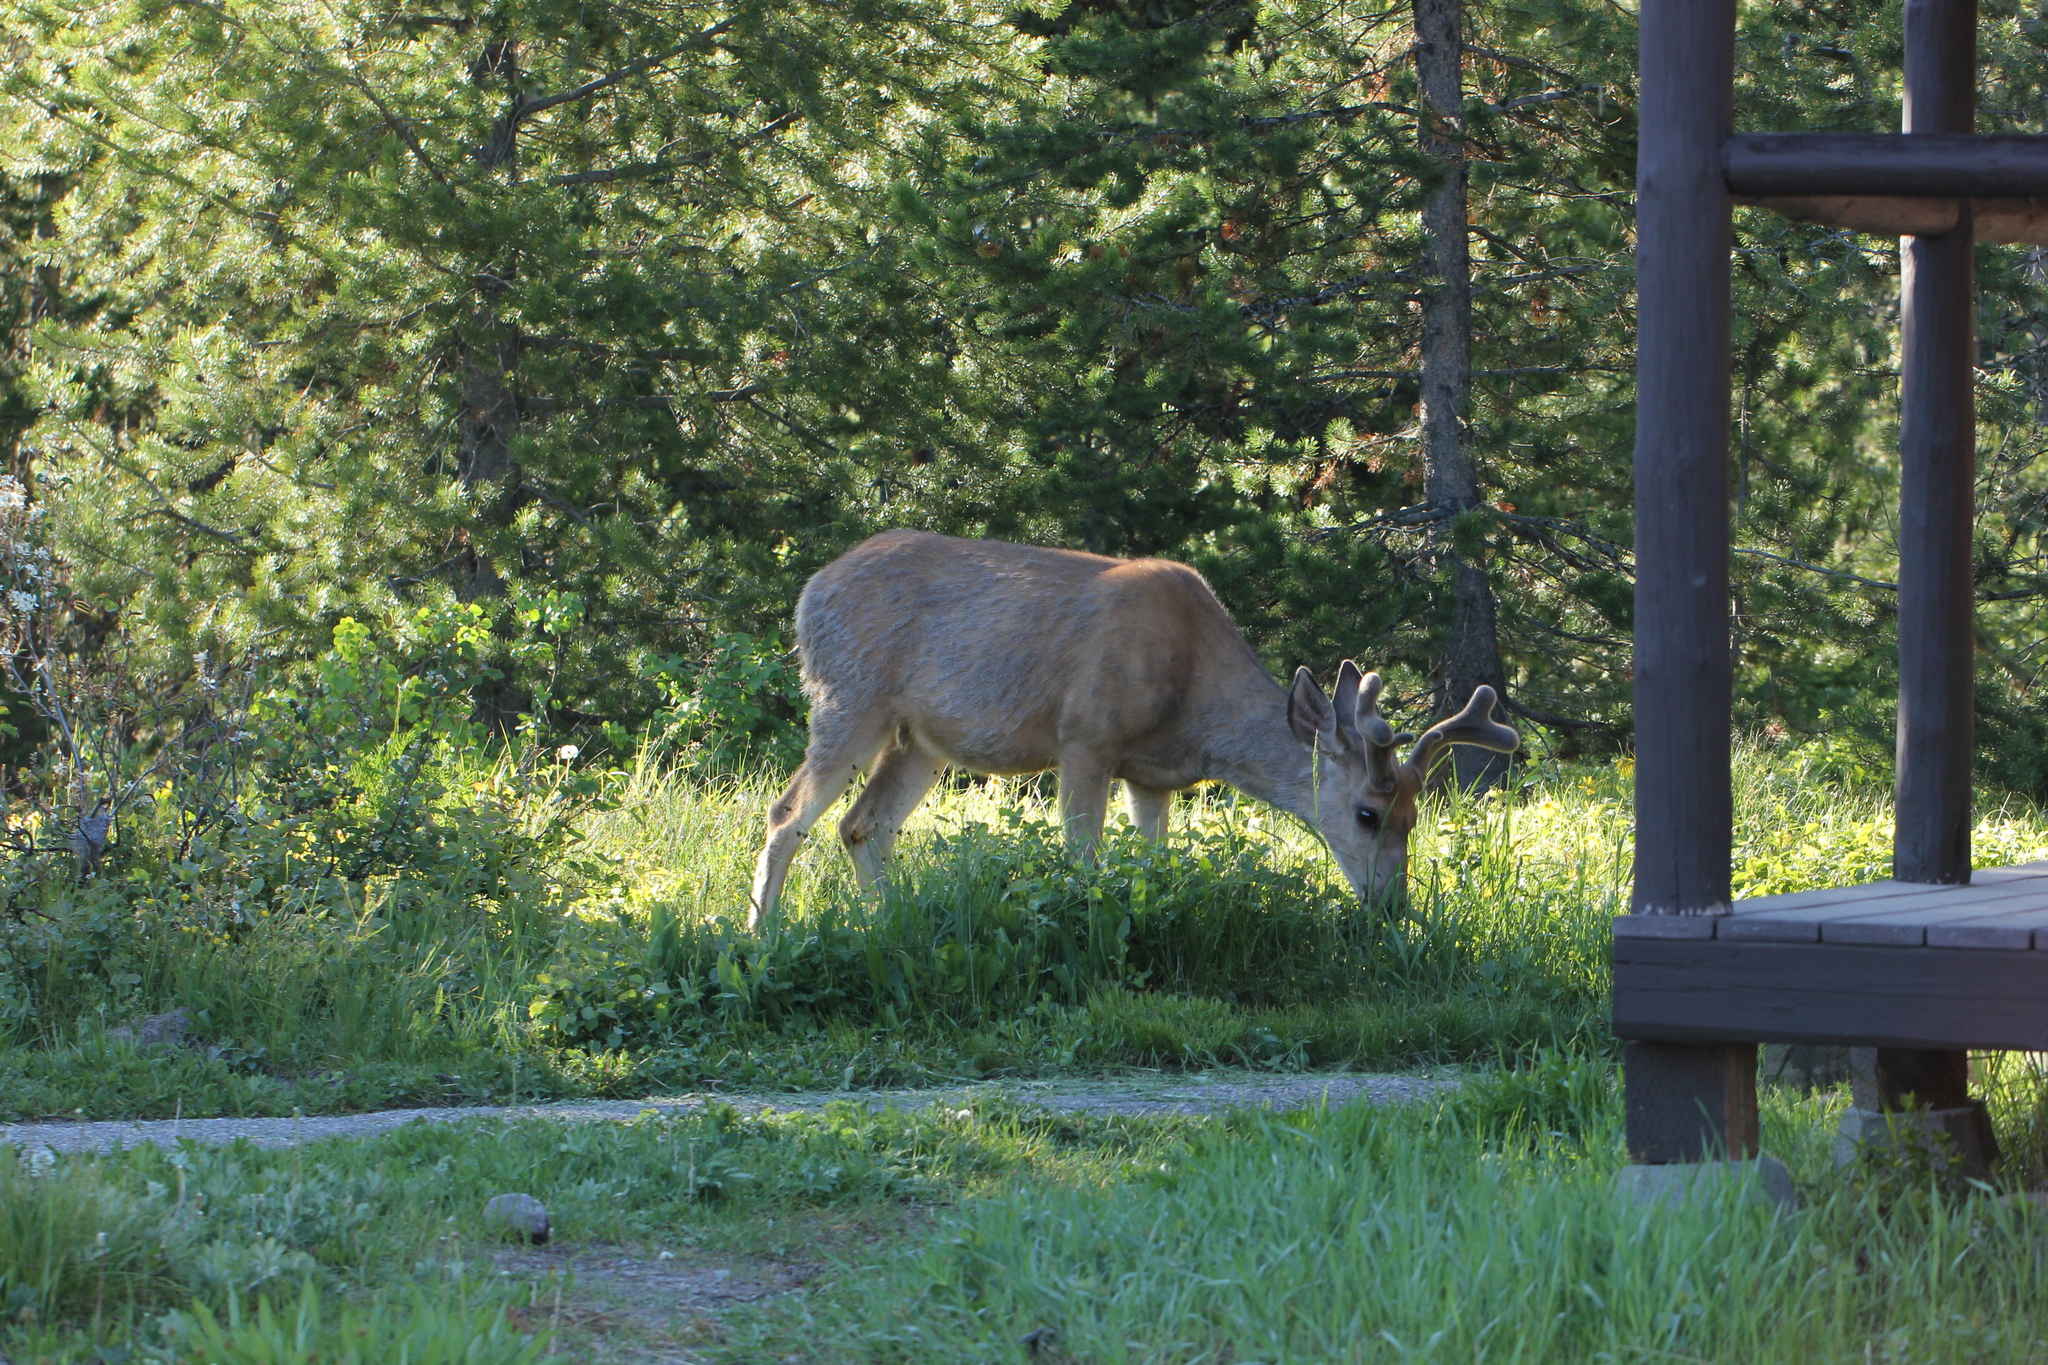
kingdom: Animalia
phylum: Chordata
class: Mammalia
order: Artiodactyla
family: Cervidae
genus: Odocoileus
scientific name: Odocoileus hemionus
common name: Mule deer
